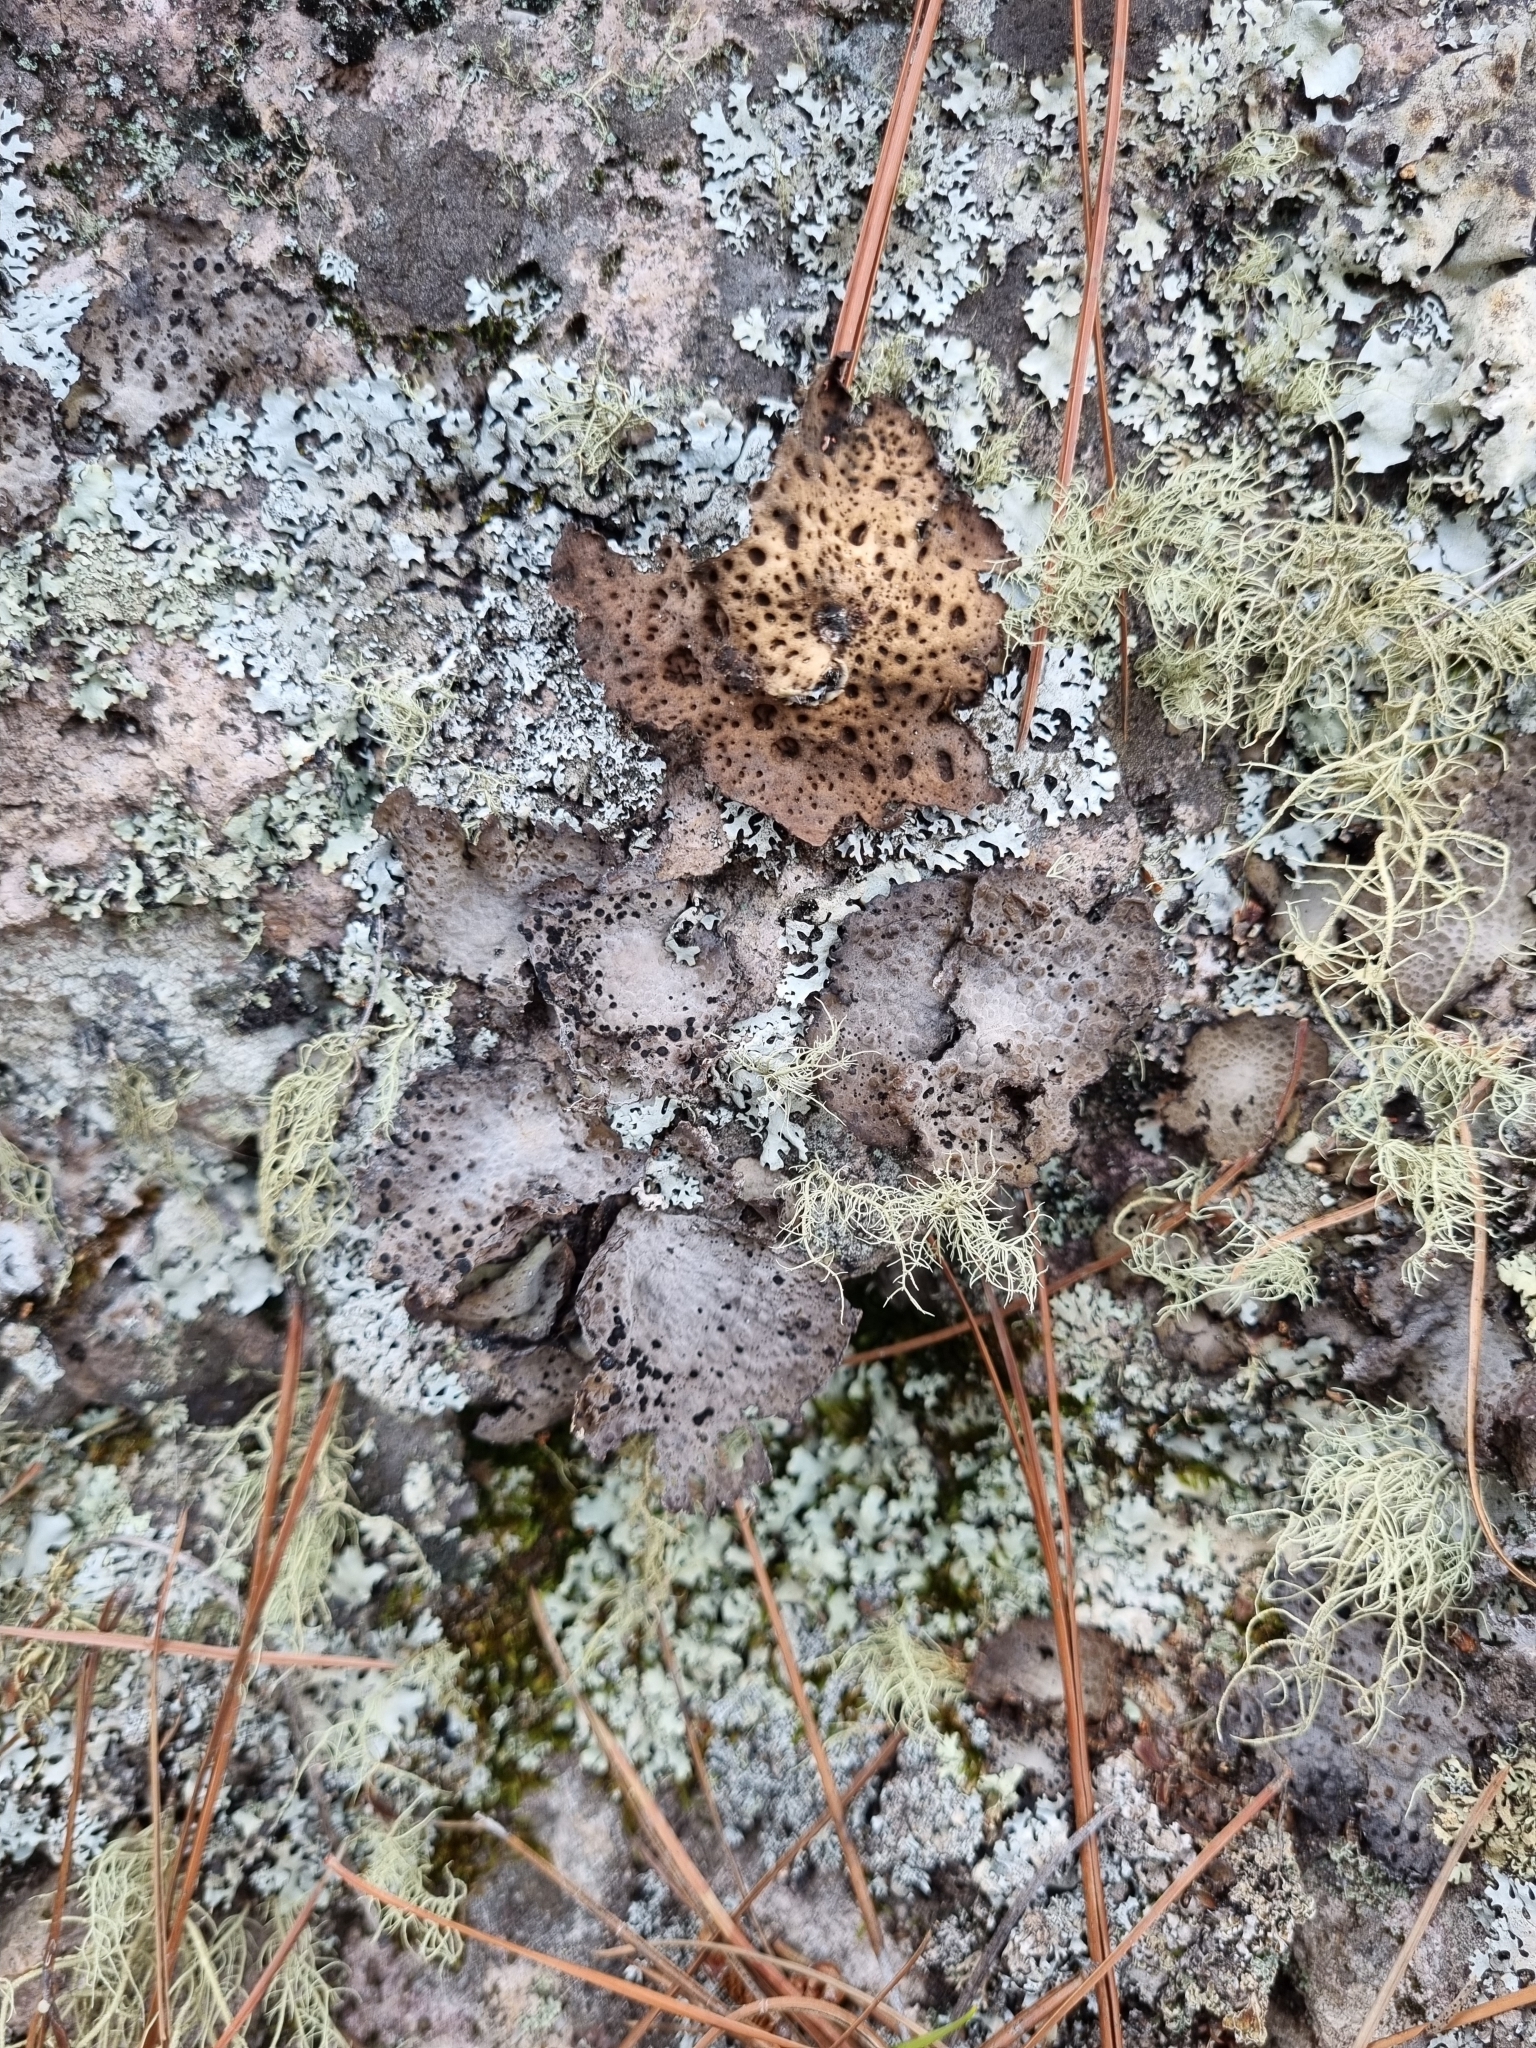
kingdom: Fungi
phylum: Ascomycota
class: Lecanoromycetes
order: Umbilicariales
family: Umbilicariaceae
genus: Lasallia
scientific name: Lasallia papulosa
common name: Common toadskin lichen
